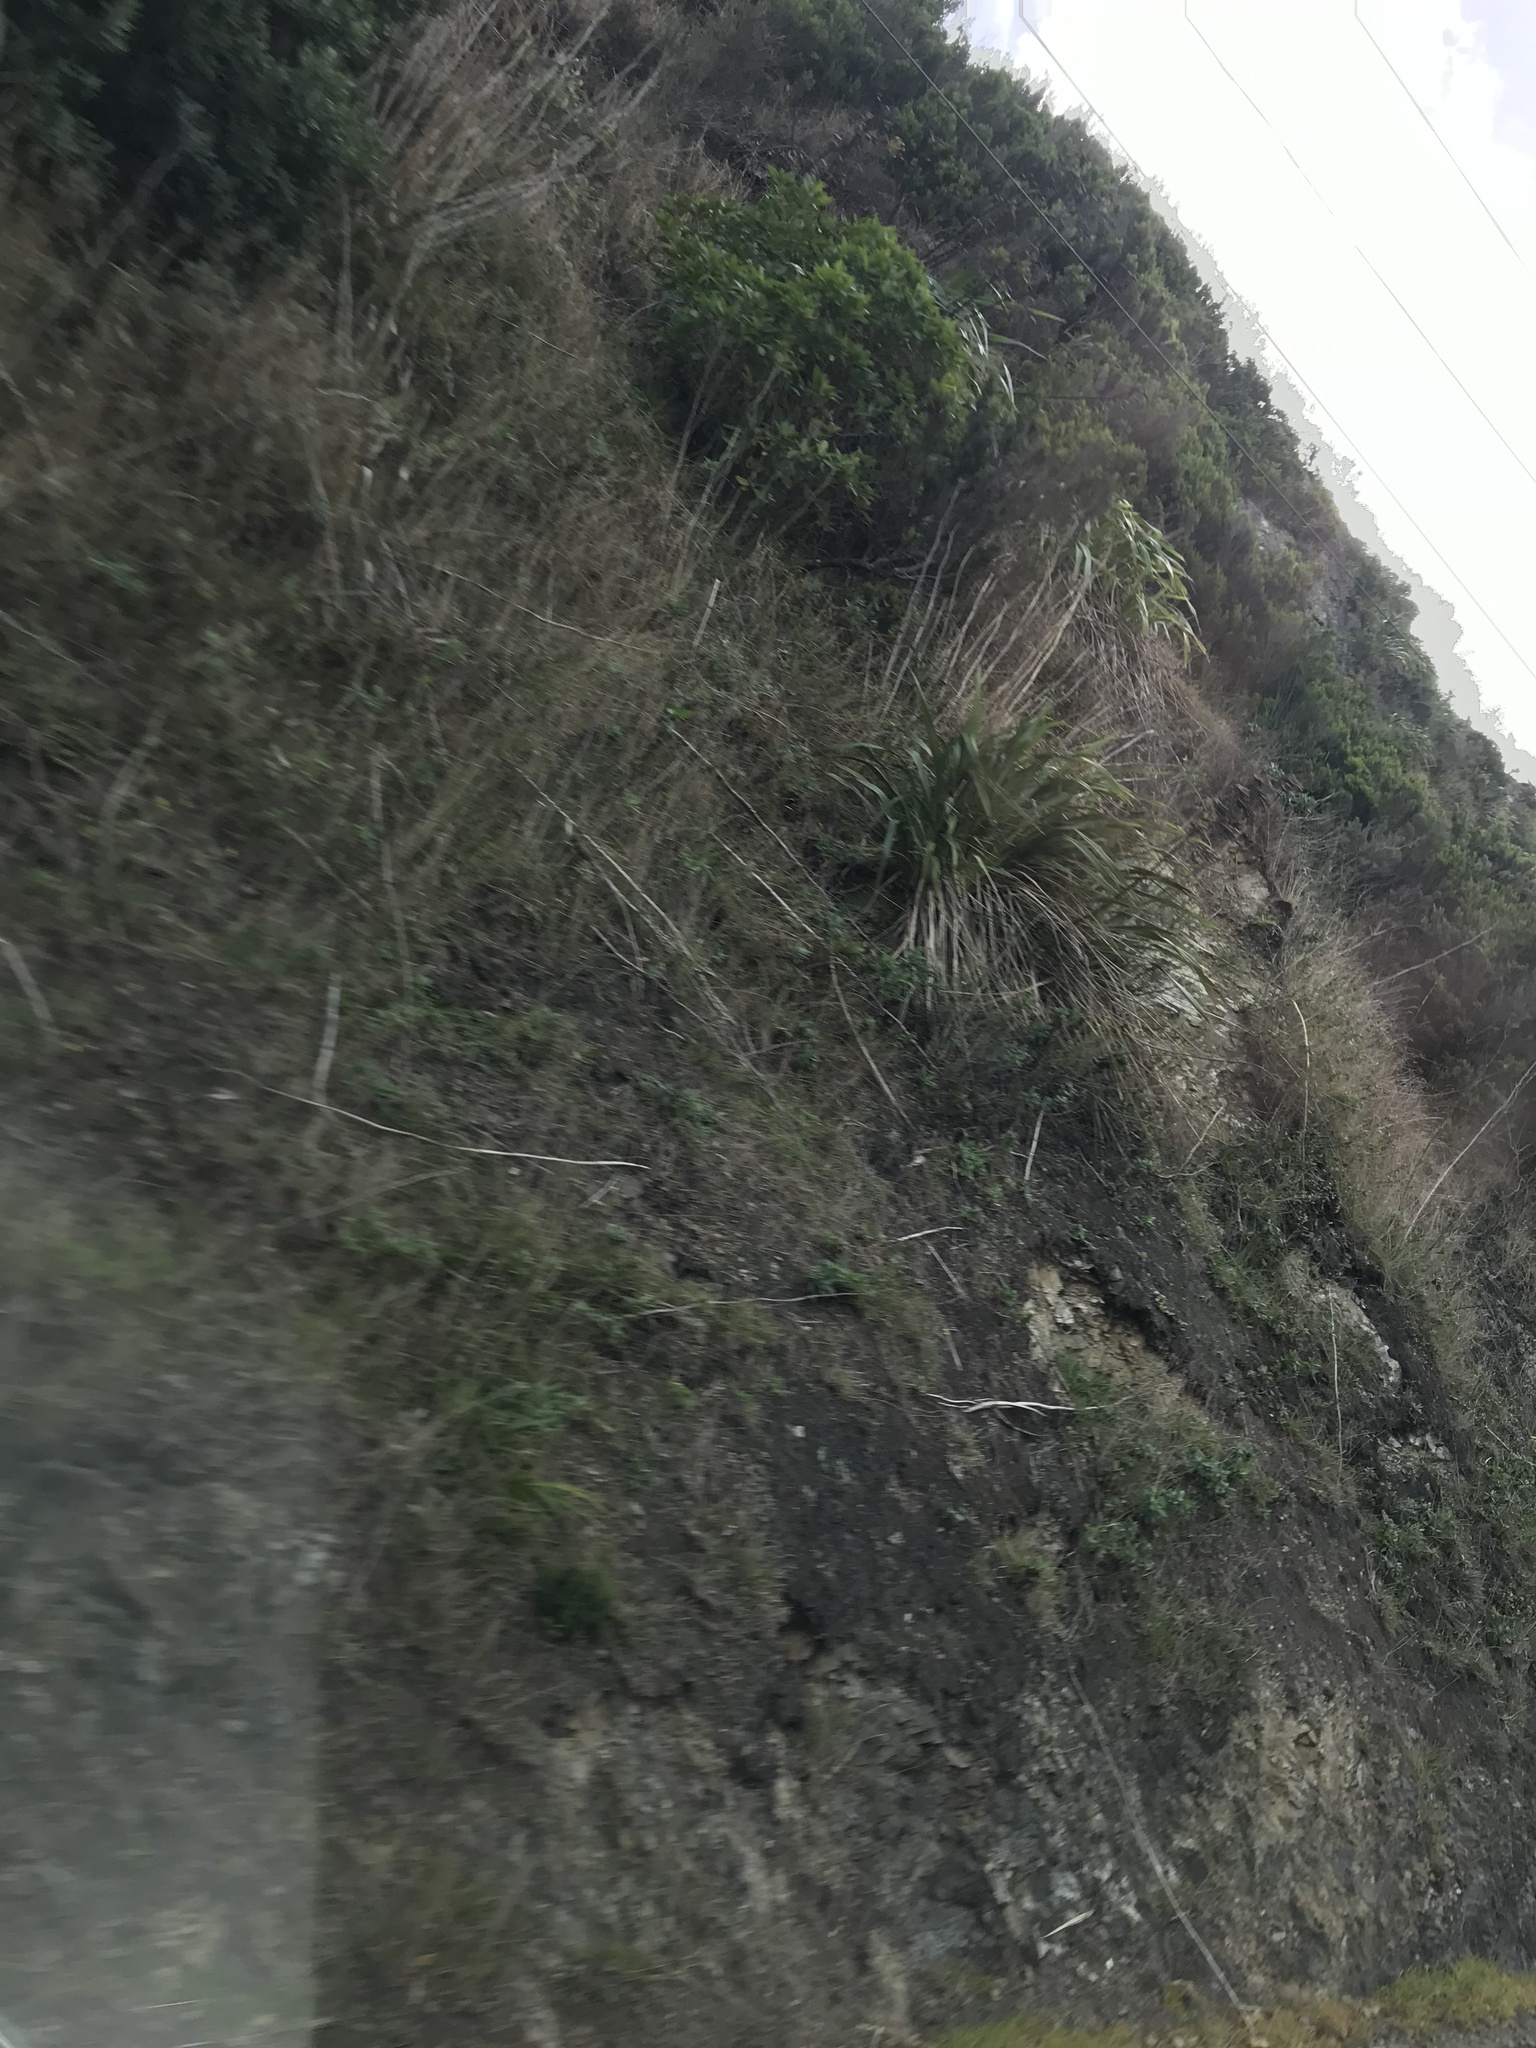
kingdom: Plantae
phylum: Tracheophyta
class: Liliopsida
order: Asparagales
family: Asphodelaceae
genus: Phormium
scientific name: Phormium colensoi
